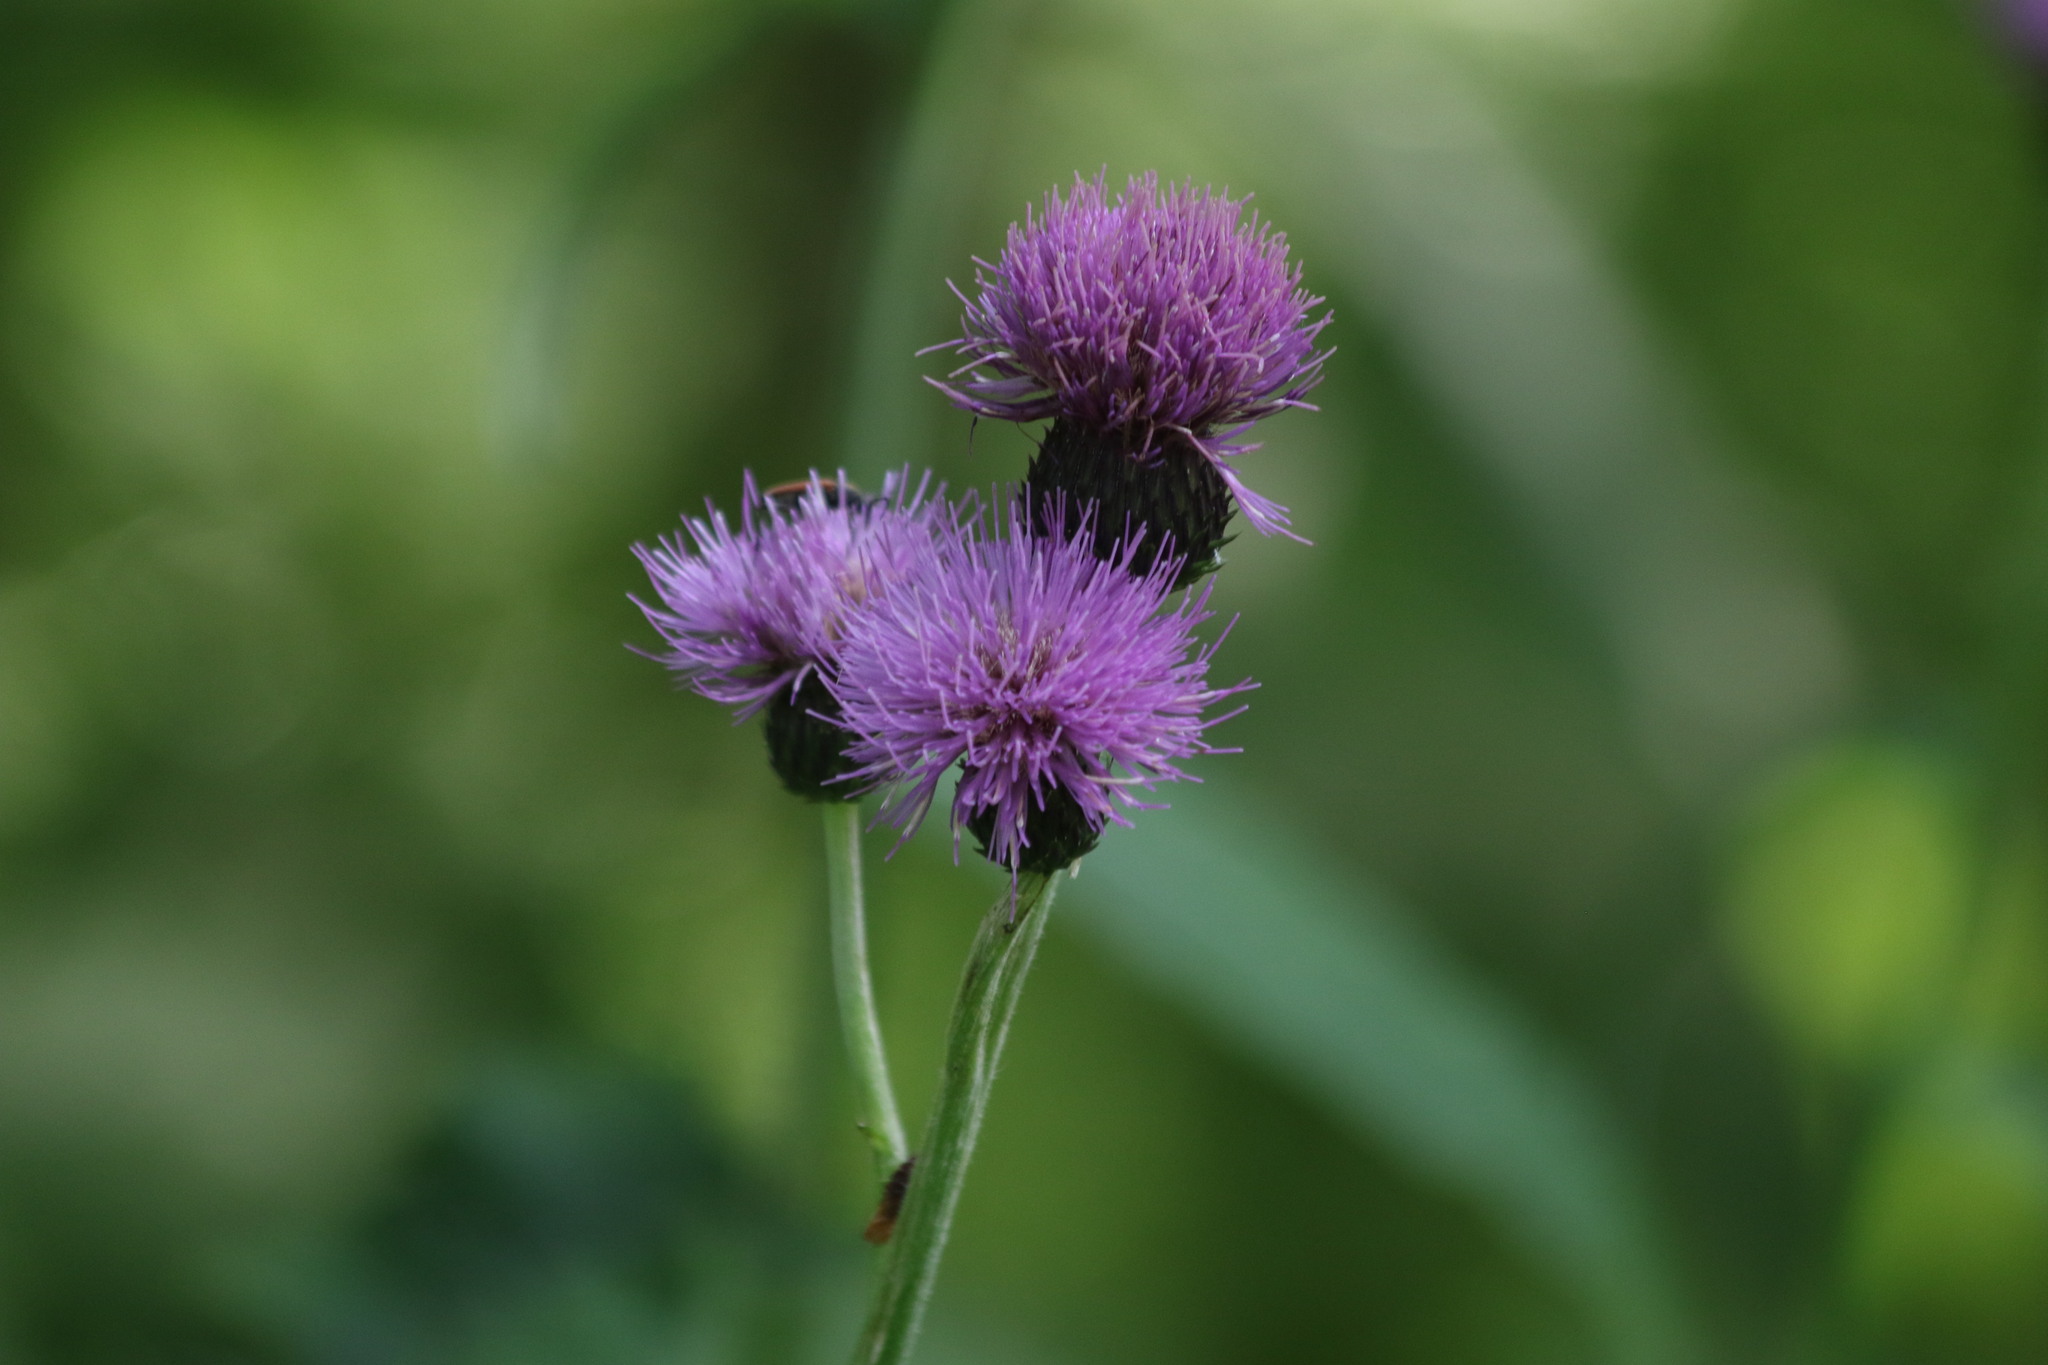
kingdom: Plantae
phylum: Tracheophyta
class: Magnoliopsida
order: Asterales
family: Asteraceae
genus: Cirsium
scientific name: Cirsium helenioides
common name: Melancholy thistle
